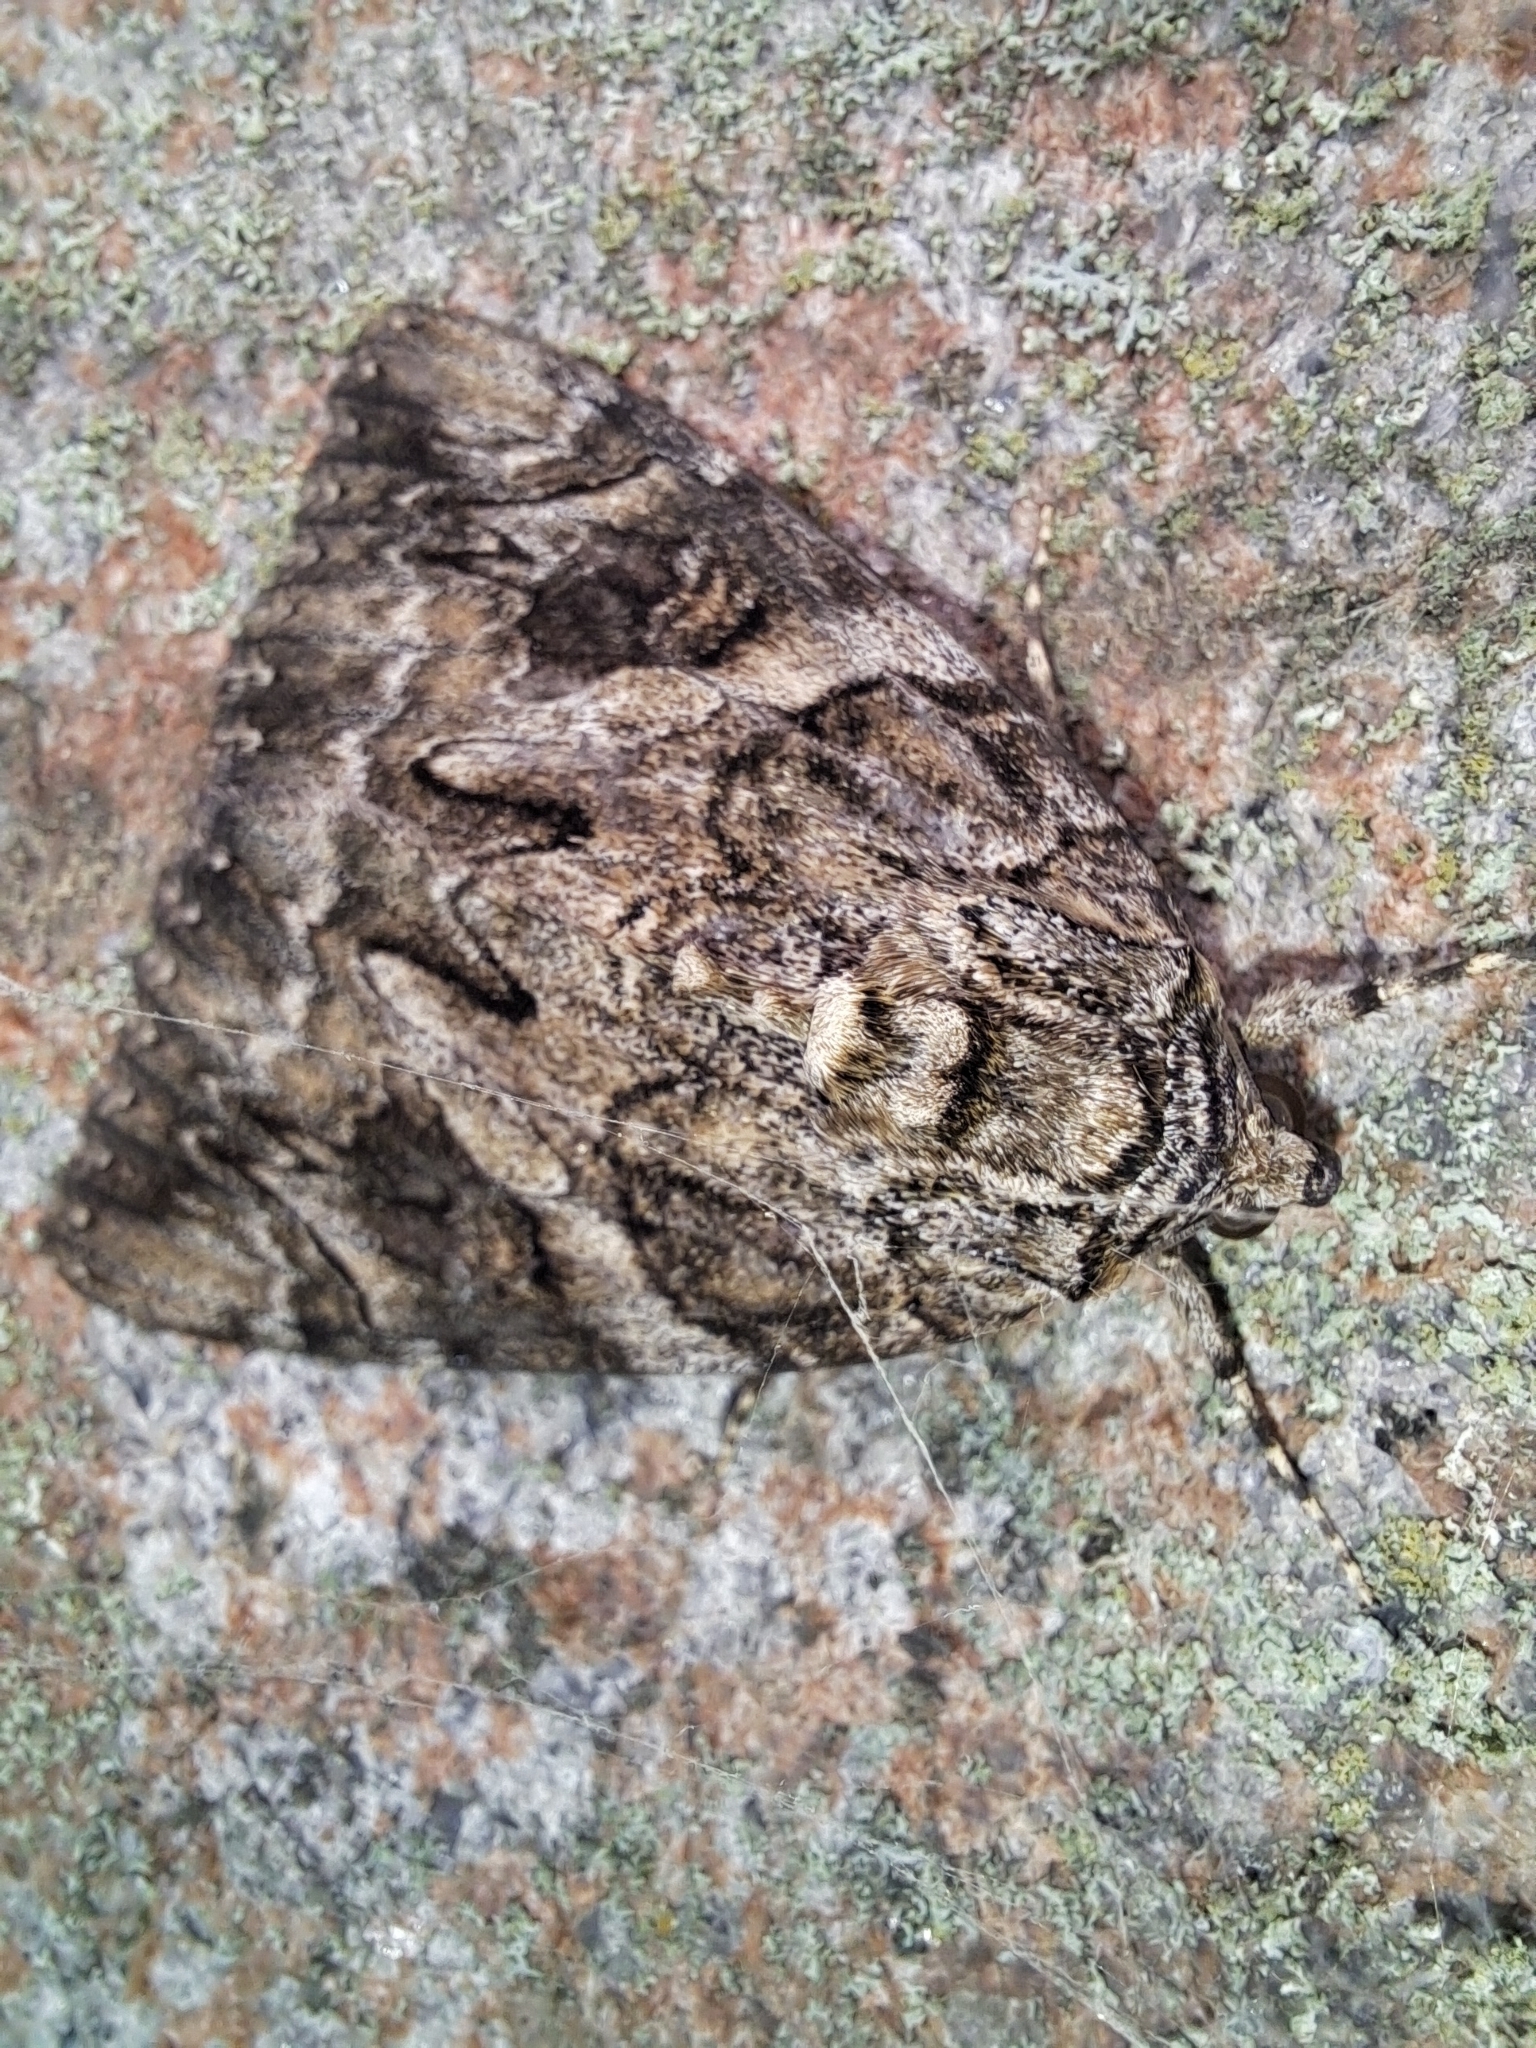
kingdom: Animalia
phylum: Arthropoda
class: Insecta
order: Lepidoptera
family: Erebidae
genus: Catocala
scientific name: Catocala piatrix
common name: The penitent underwing
